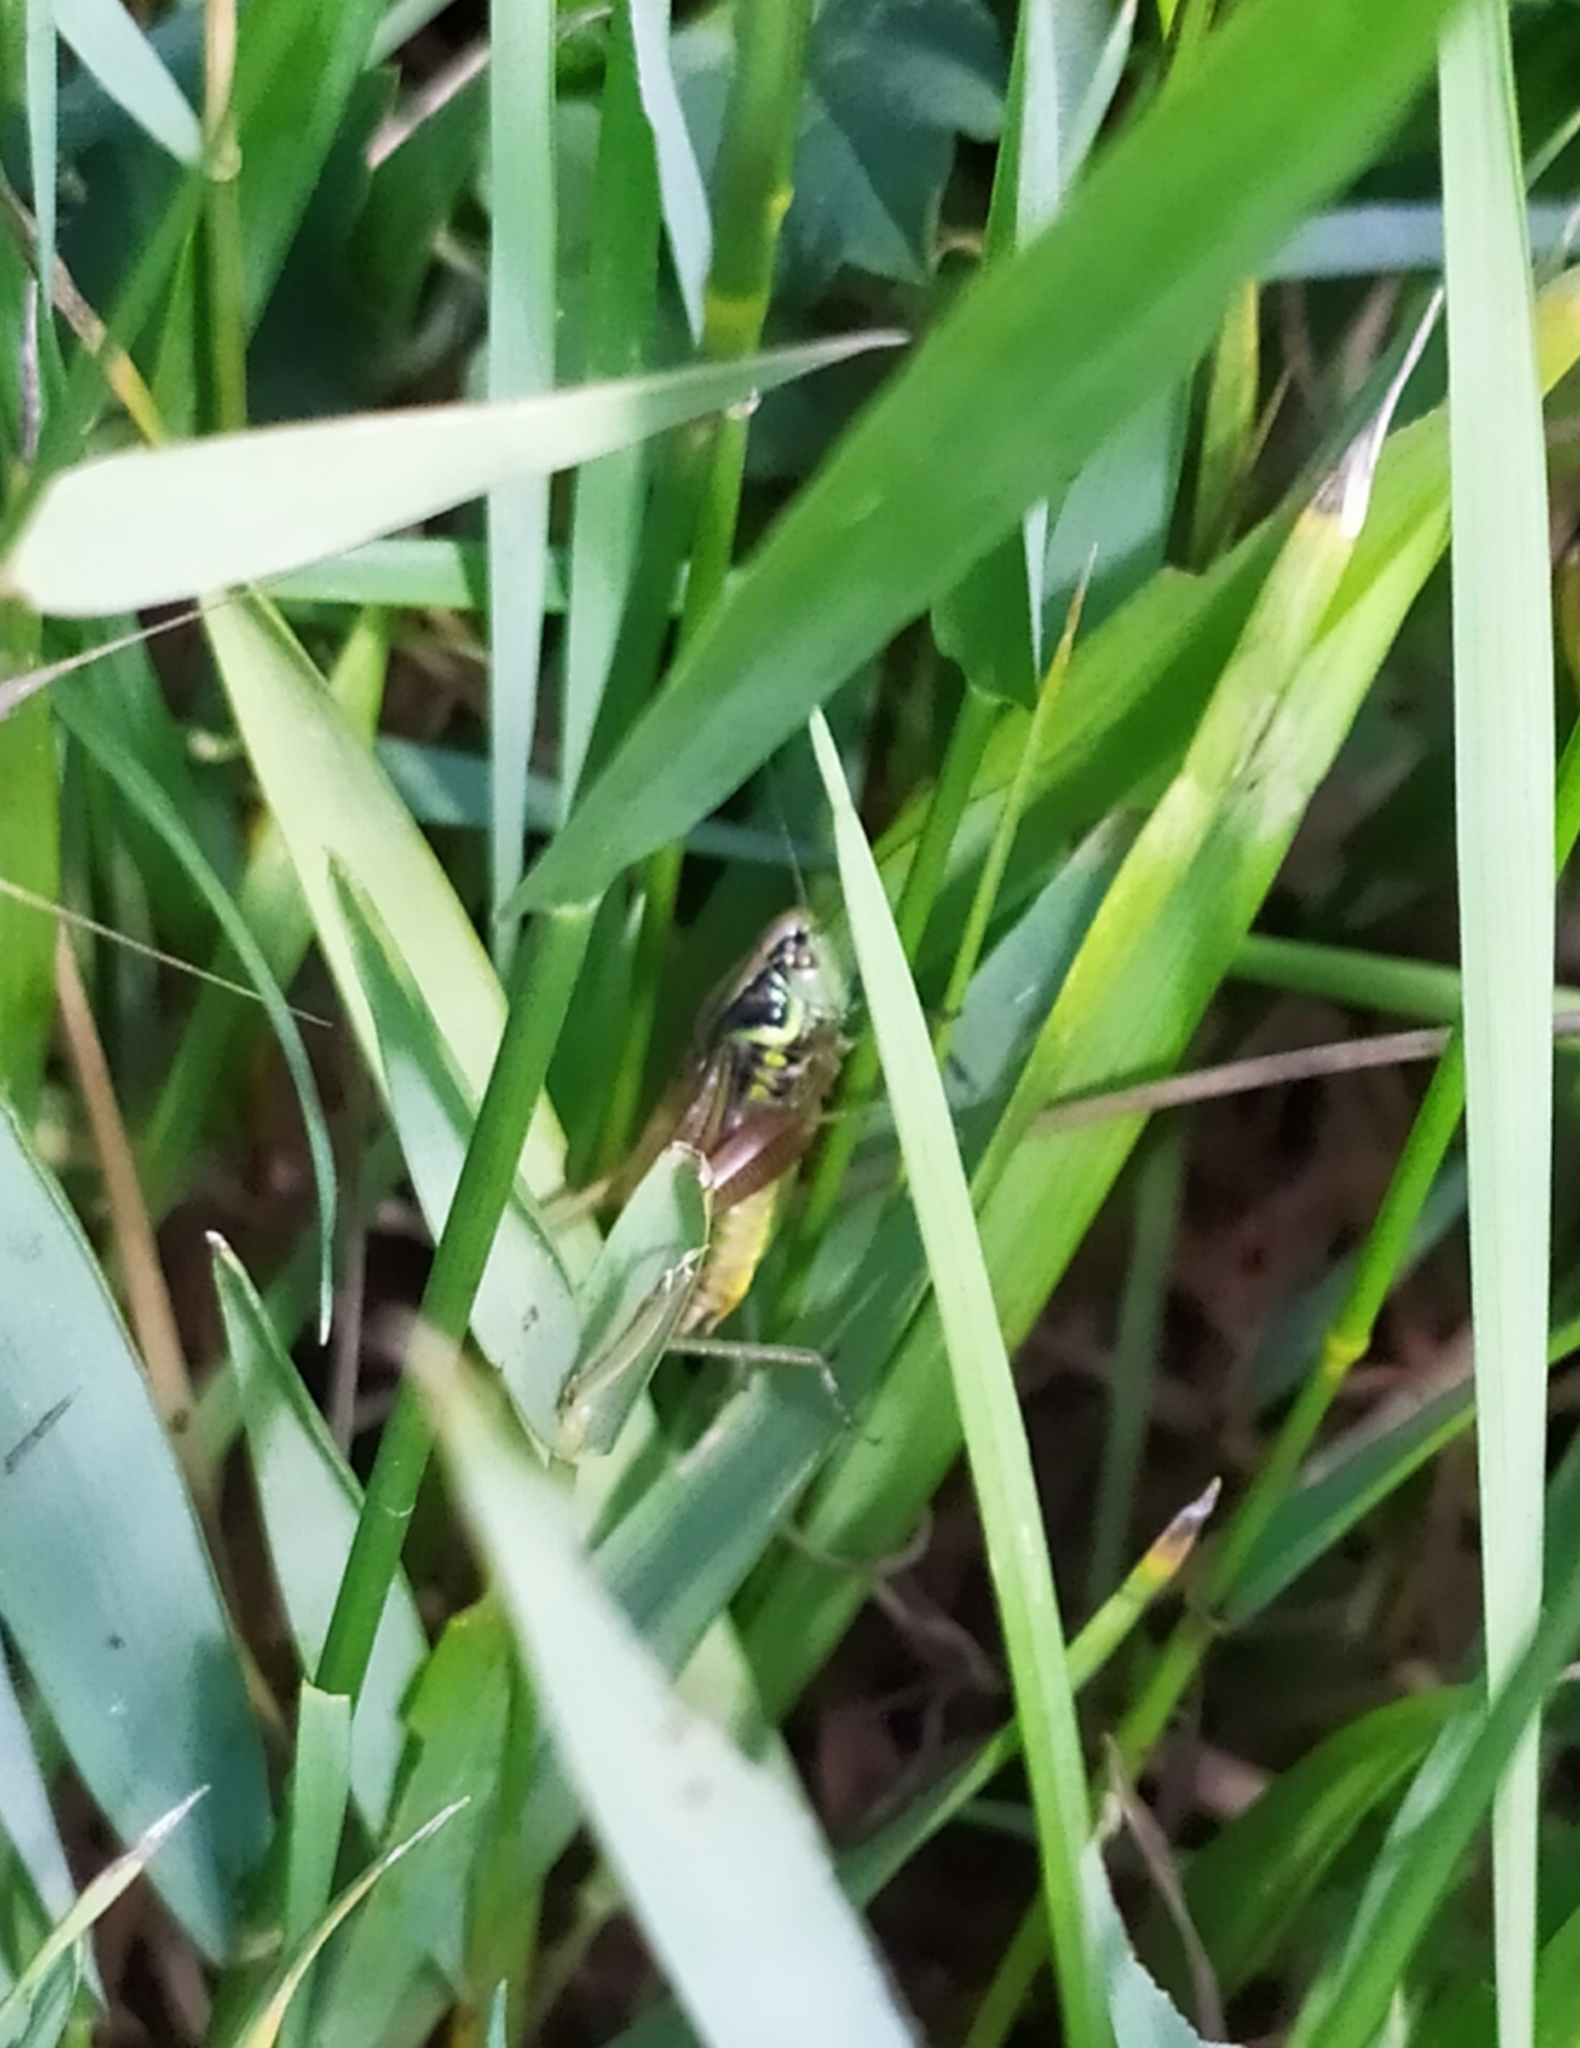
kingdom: Animalia
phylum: Arthropoda
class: Insecta
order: Orthoptera
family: Tettigoniidae
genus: Roeseliana
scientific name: Roeseliana roeselii
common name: Roesel's bush cricket
